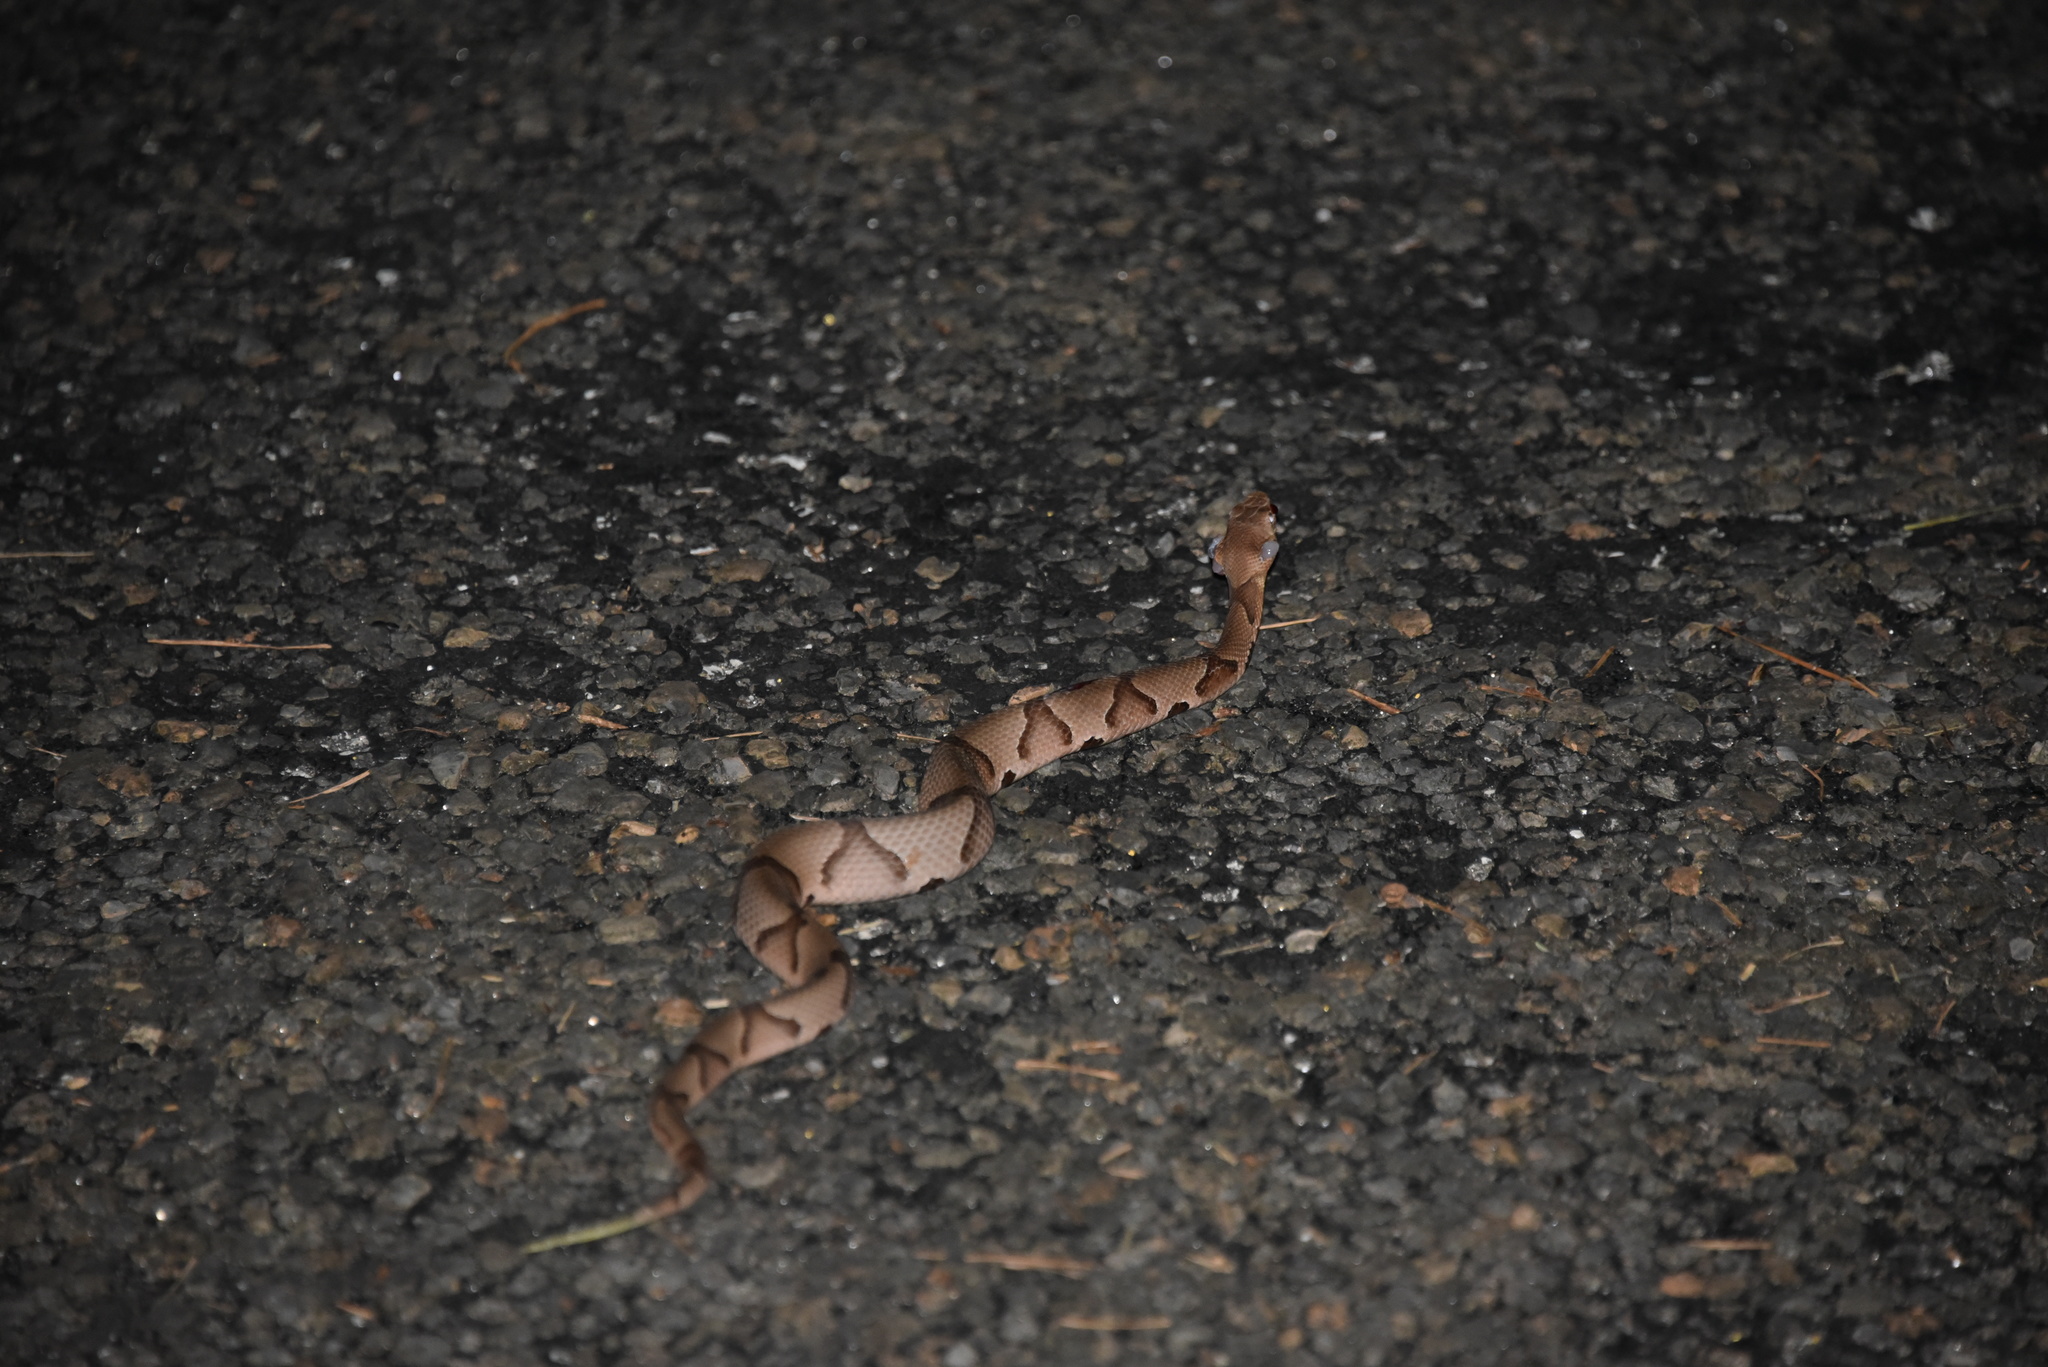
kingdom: Animalia
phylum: Chordata
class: Squamata
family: Viperidae
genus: Agkistrodon
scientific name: Agkistrodon contortrix
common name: Northern copperhead
